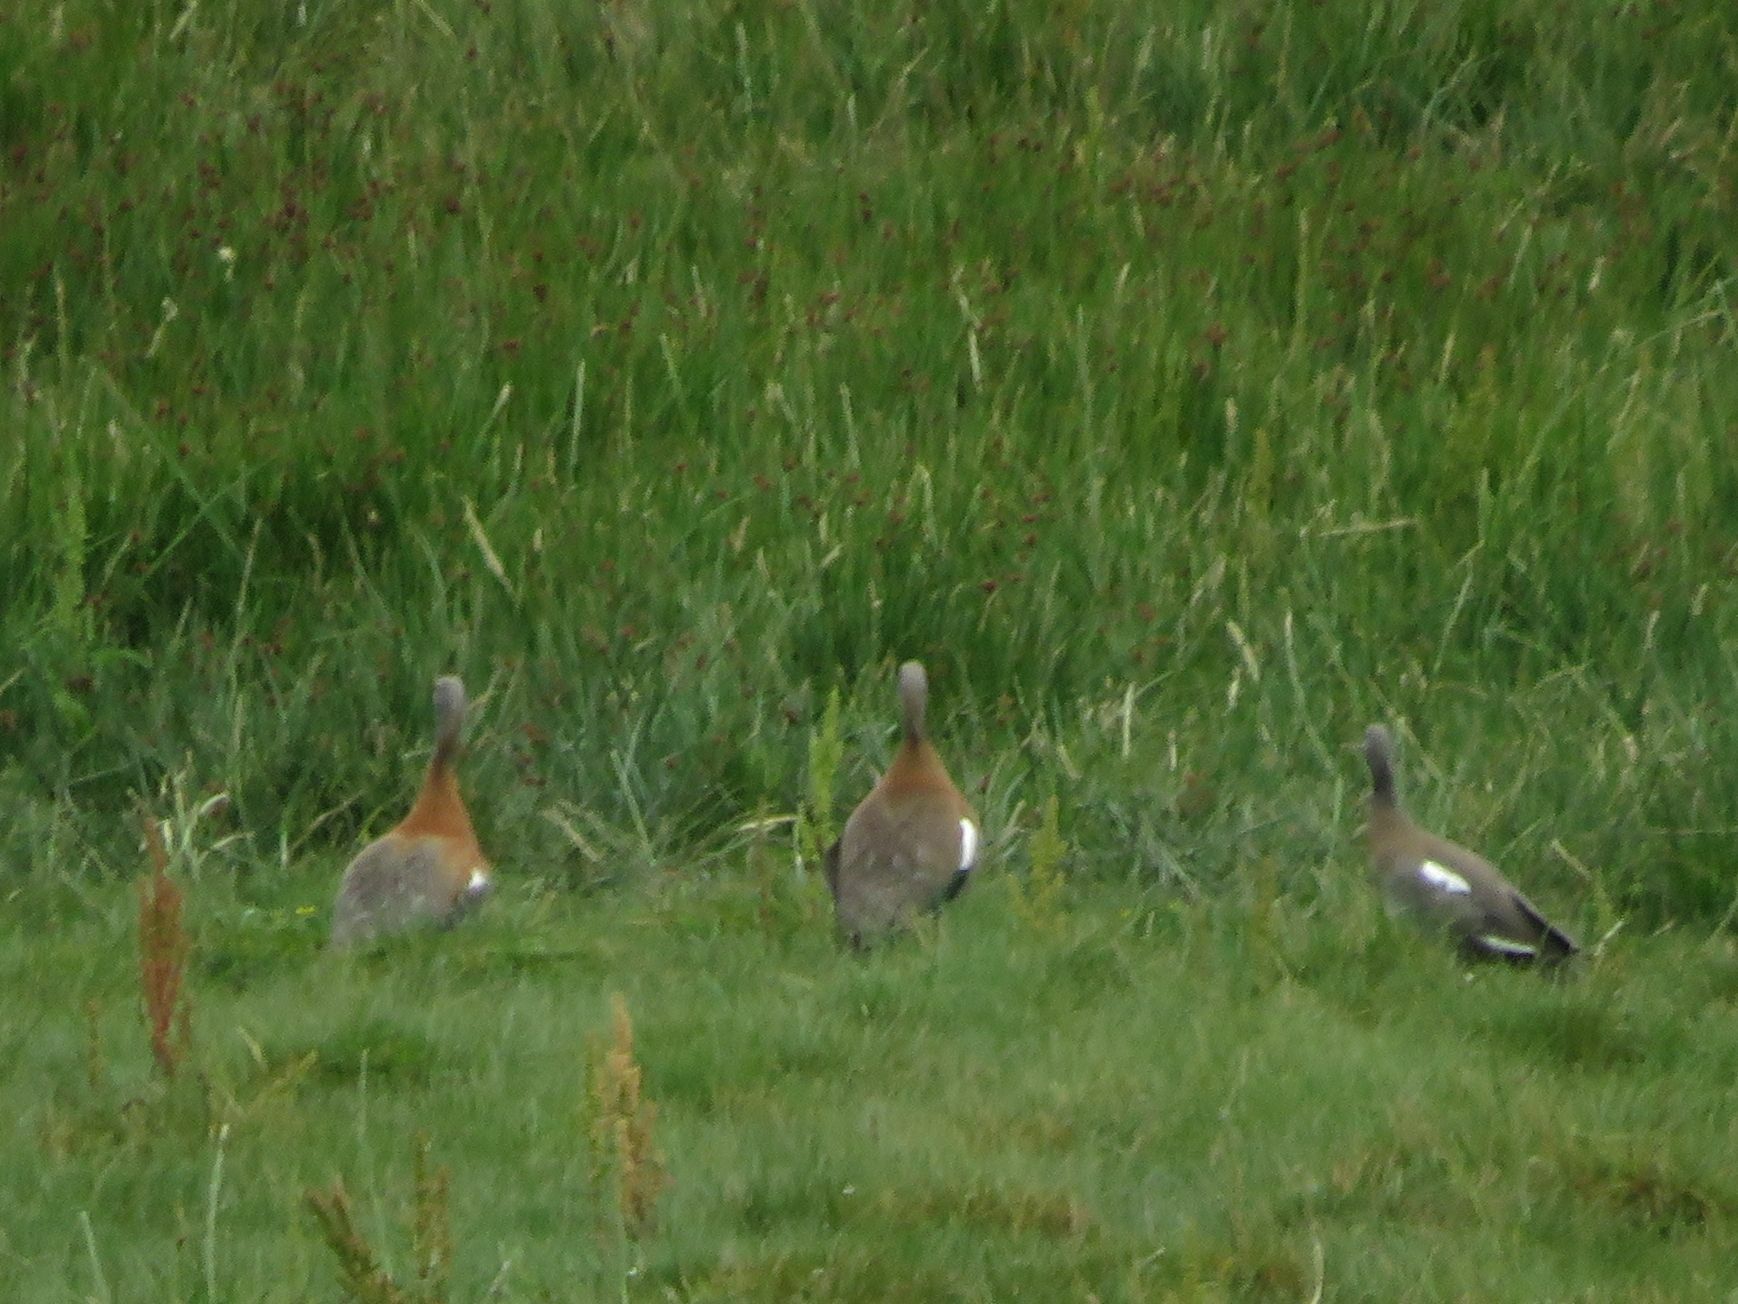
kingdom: Animalia
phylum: Chordata
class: Aves
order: Anseriformes
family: Anatidae
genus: Chloephaga
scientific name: Chloephaga poliocephala
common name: Ashy-headed goose
